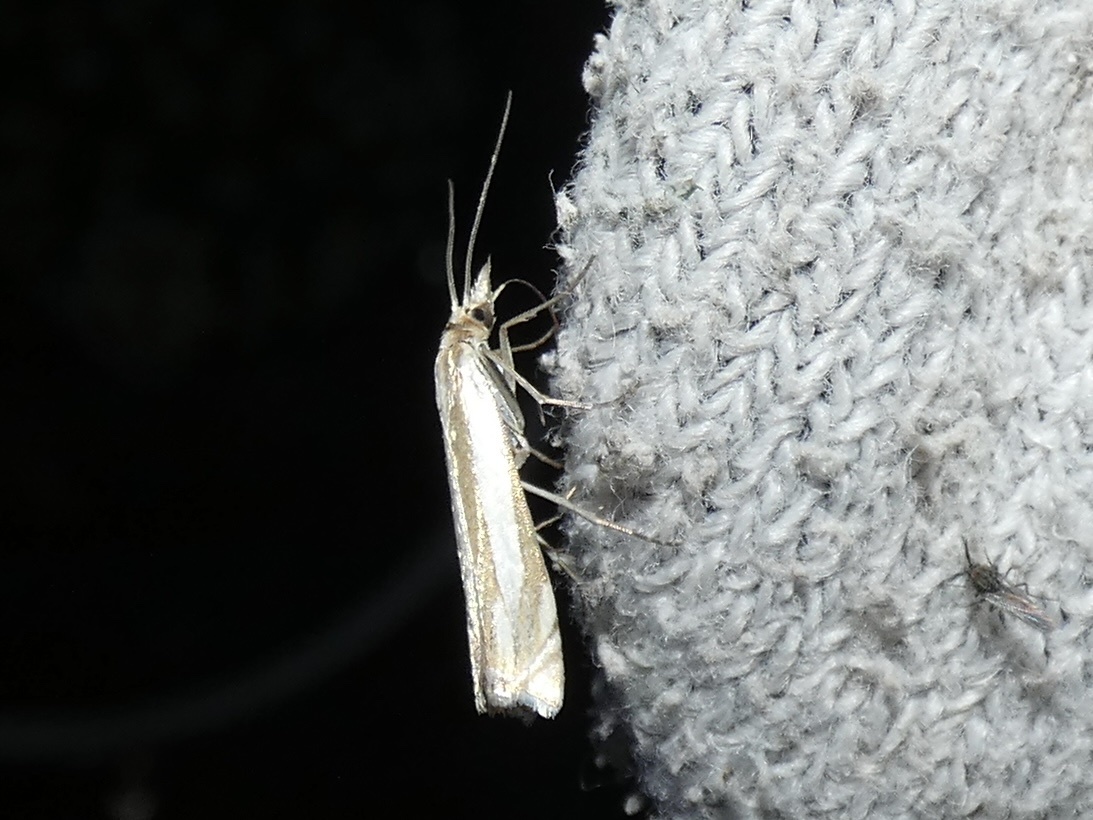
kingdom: Animalia
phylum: Arthropoda
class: Insecta
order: Lepidoptera
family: Crambidae
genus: Crambus
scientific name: Crambus pascuella
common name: Inlaid grass-veneer
